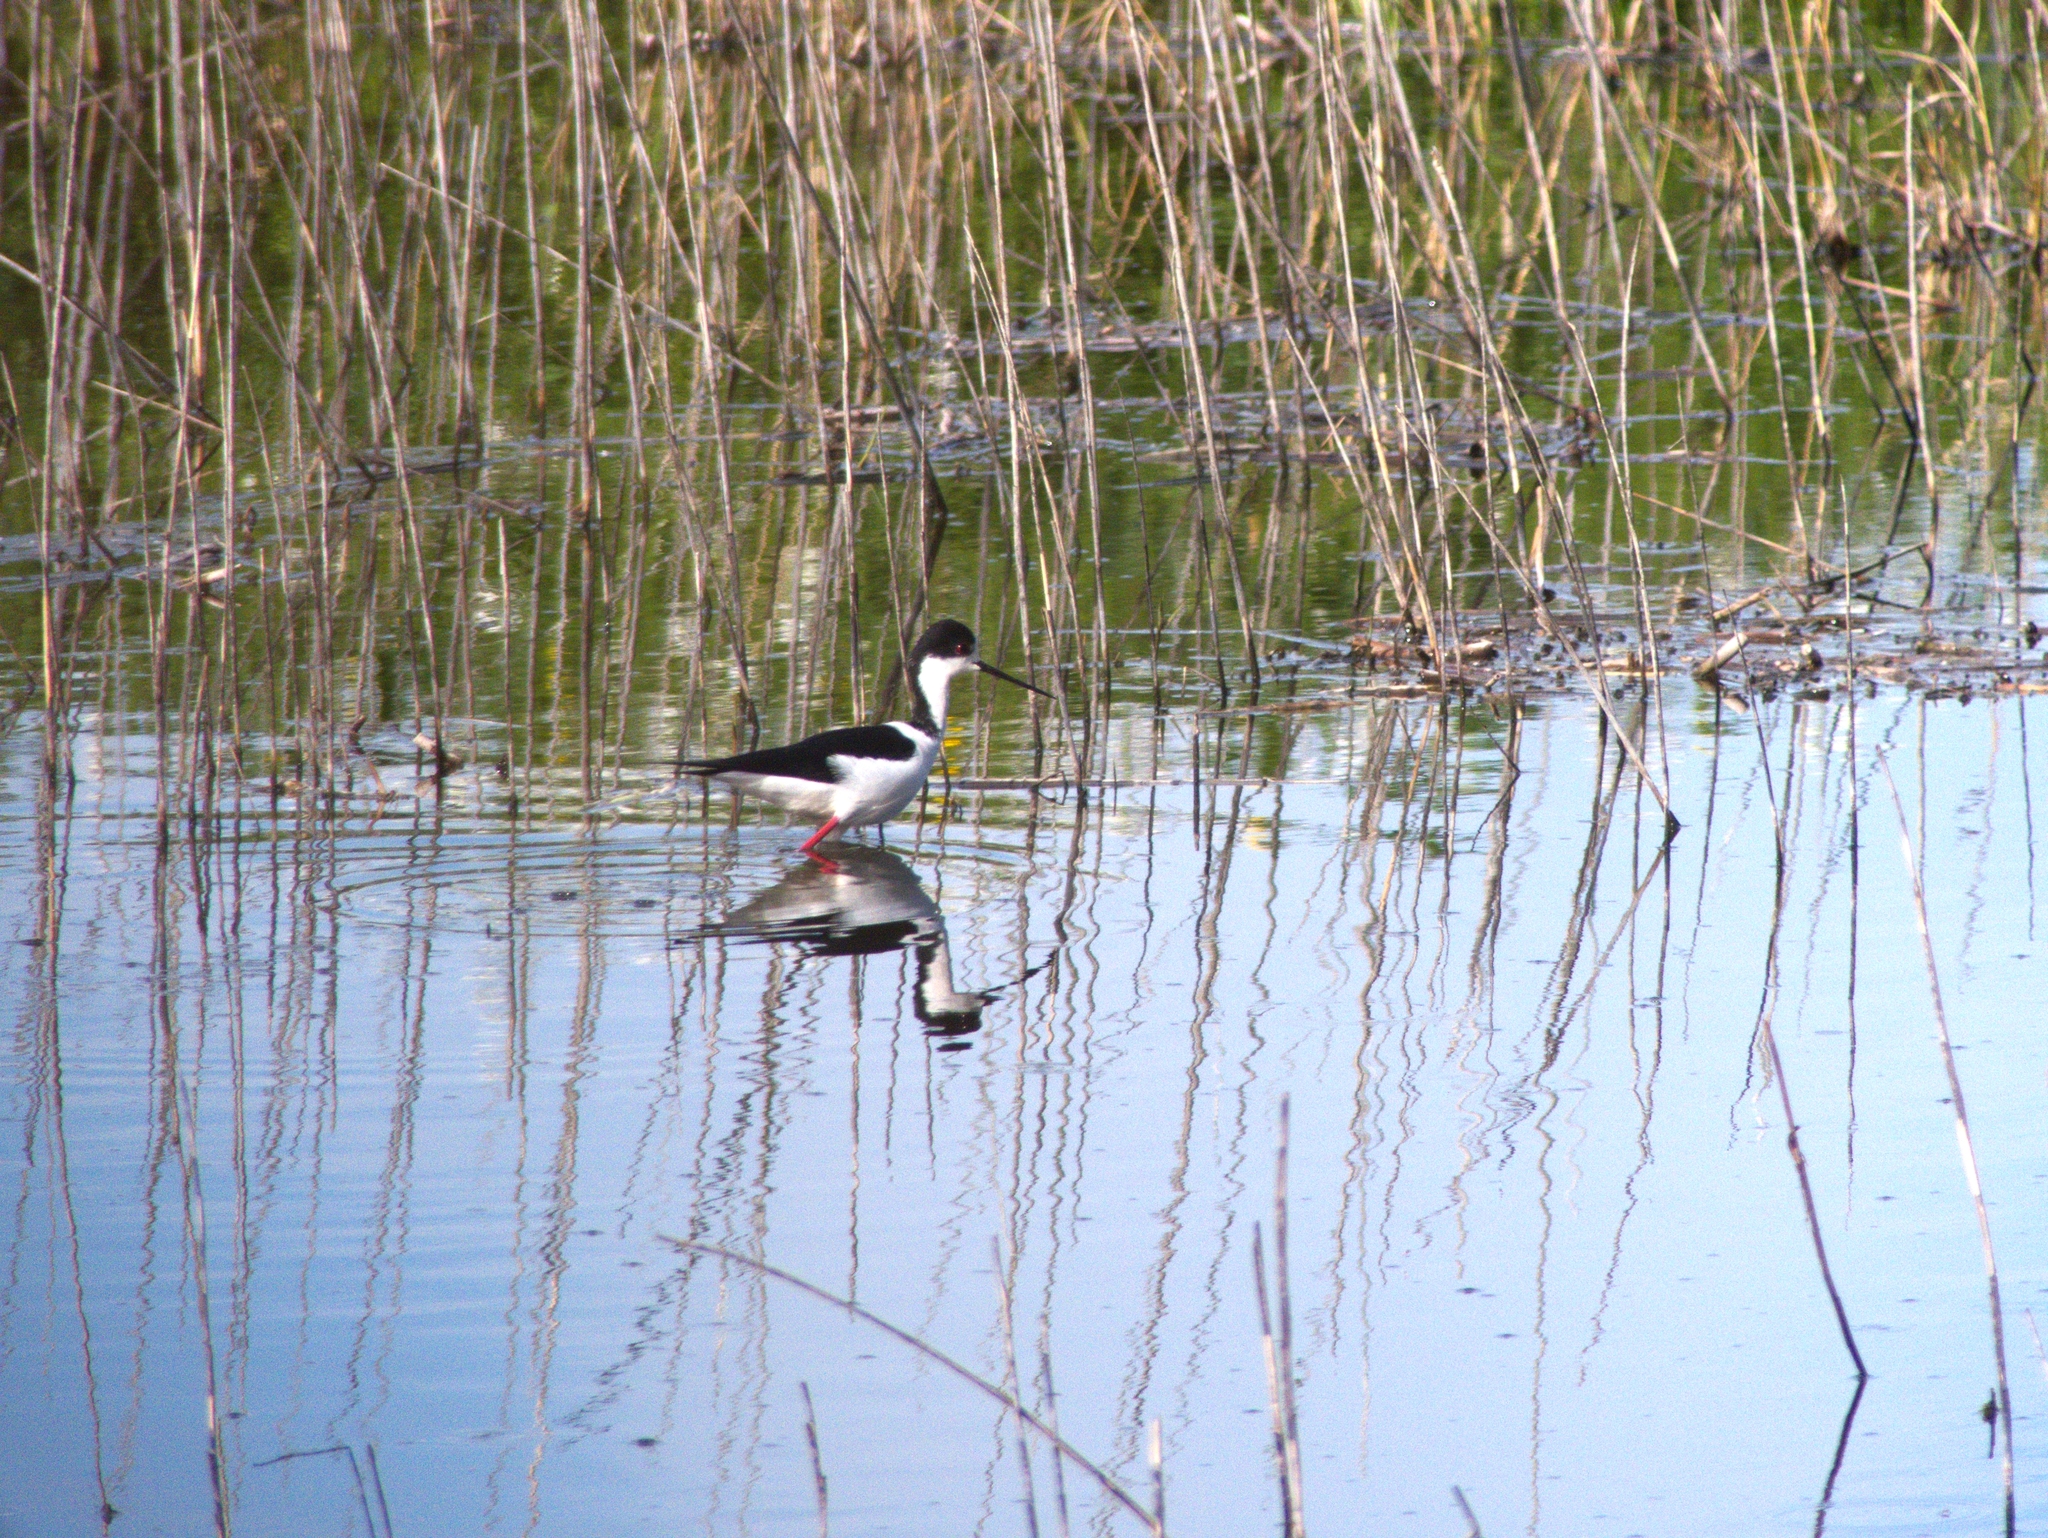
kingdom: Animalia
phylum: Chordata
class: Aves
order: Charadriiformes
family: Recurvirostridae
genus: Himantopus
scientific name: Himantopus himantopus
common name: Black-winged stilt
